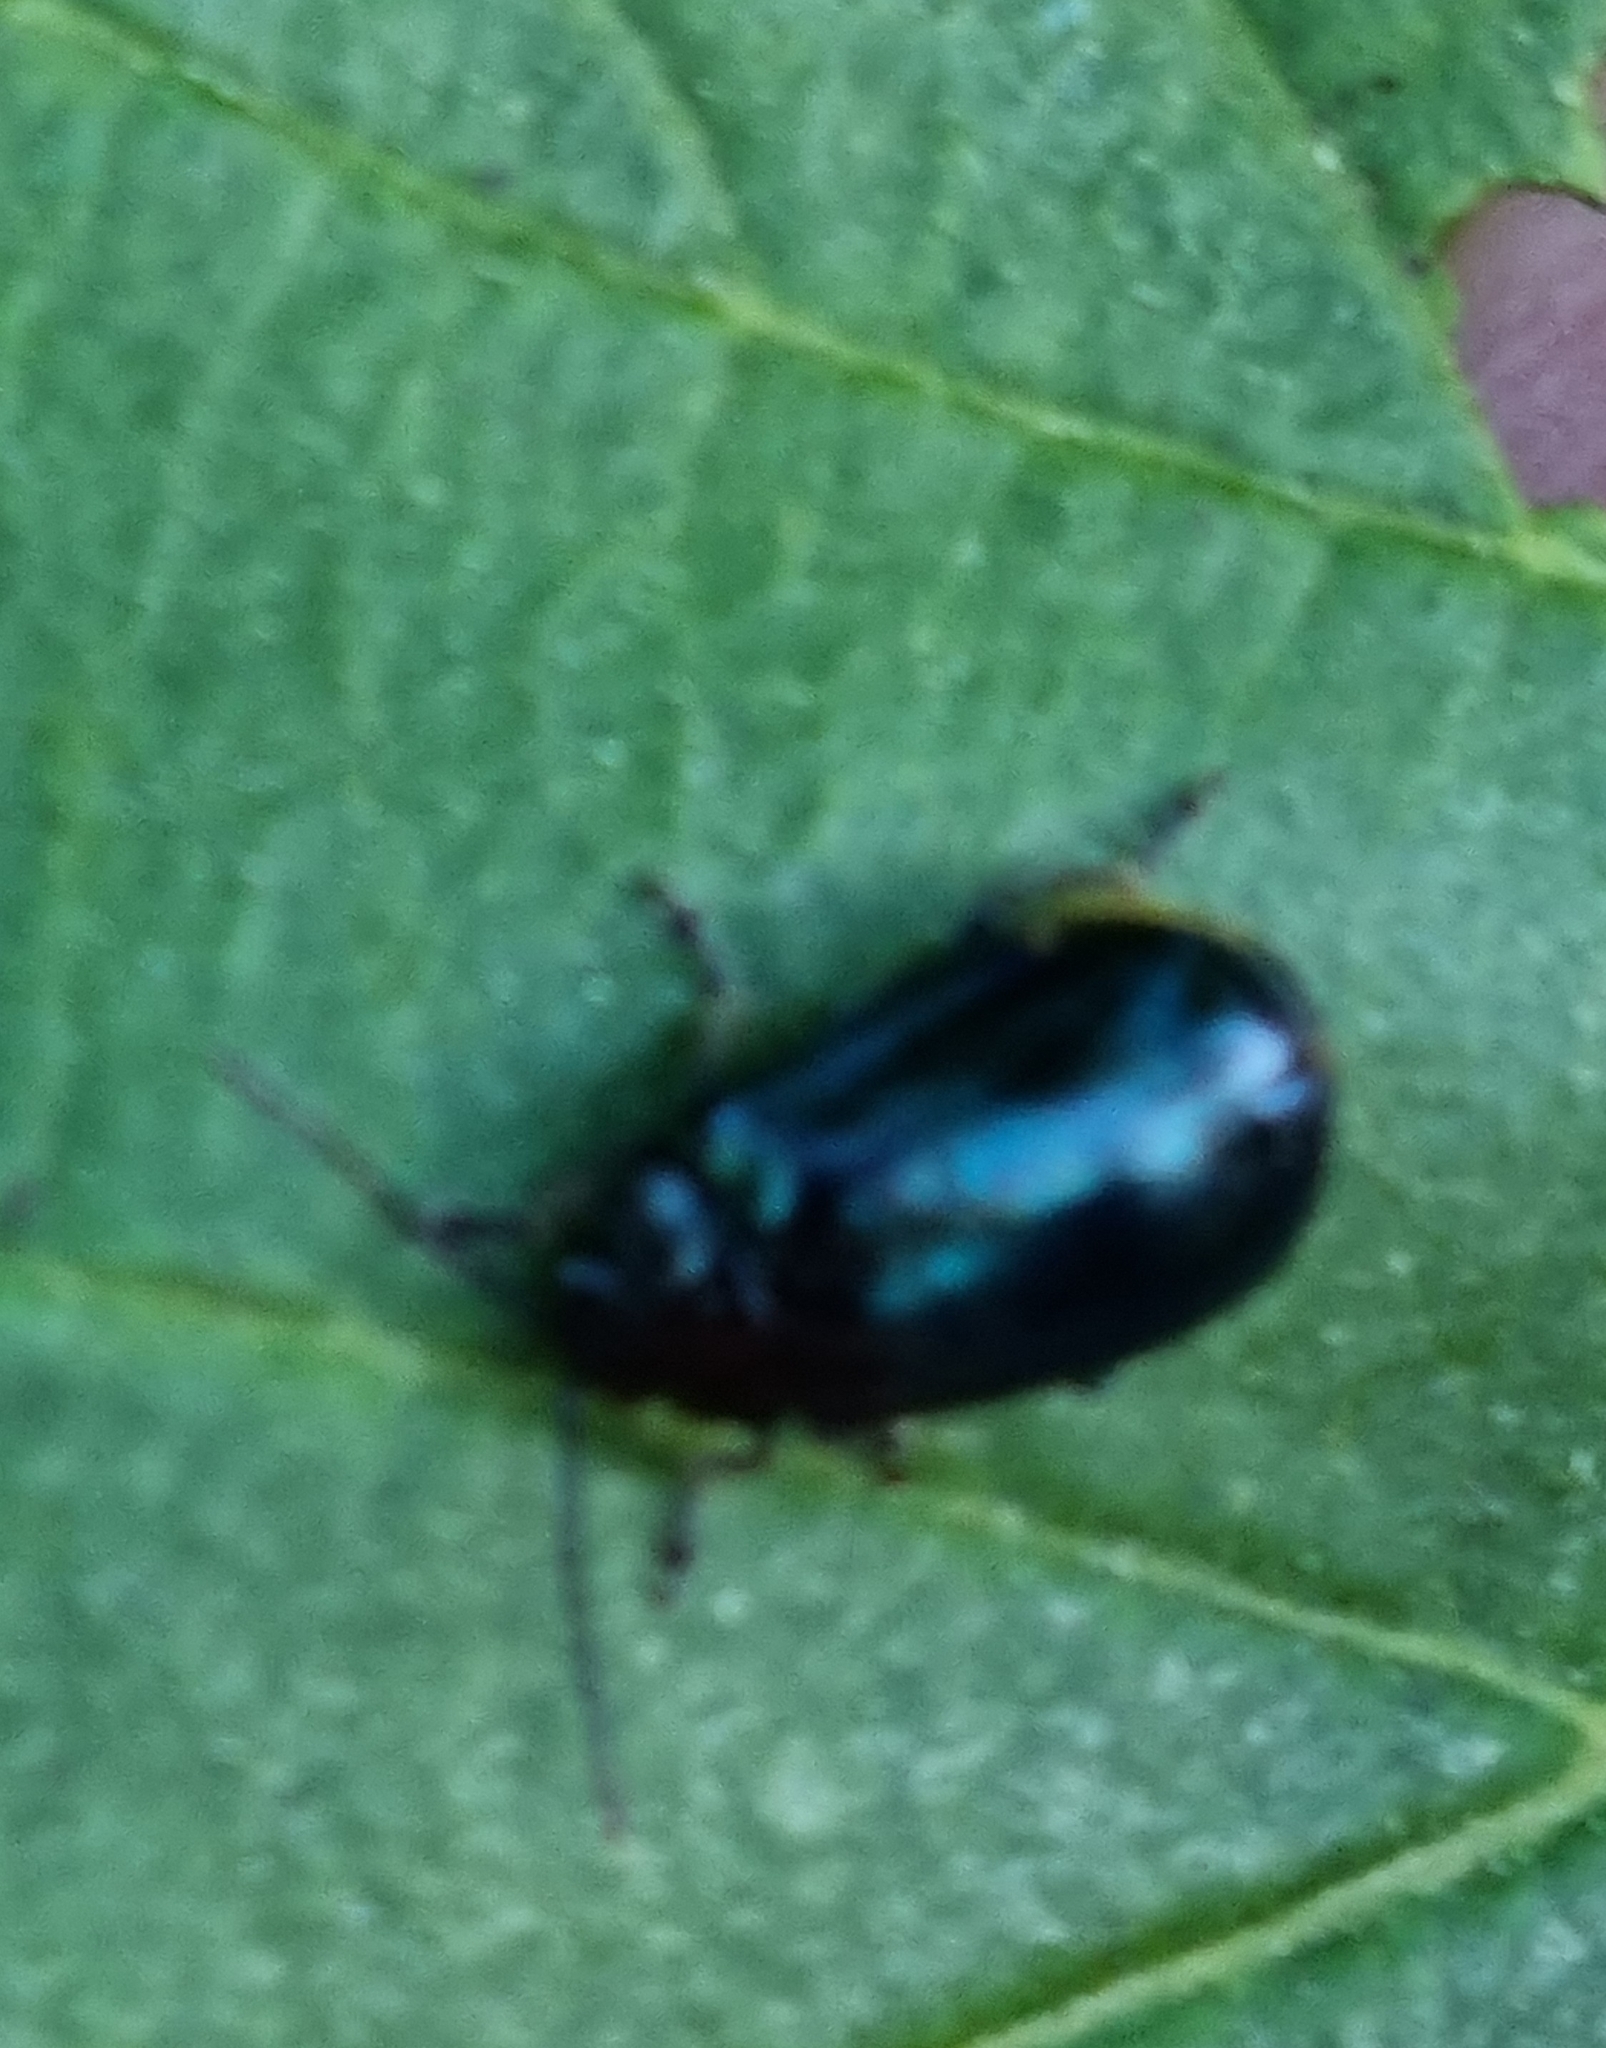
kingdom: Animalia
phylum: Arthropoda
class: Insecta
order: Coleoptera
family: Chrysomelidae
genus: Agelastica
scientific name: Agelastica alni
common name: Alder leaf beetle
